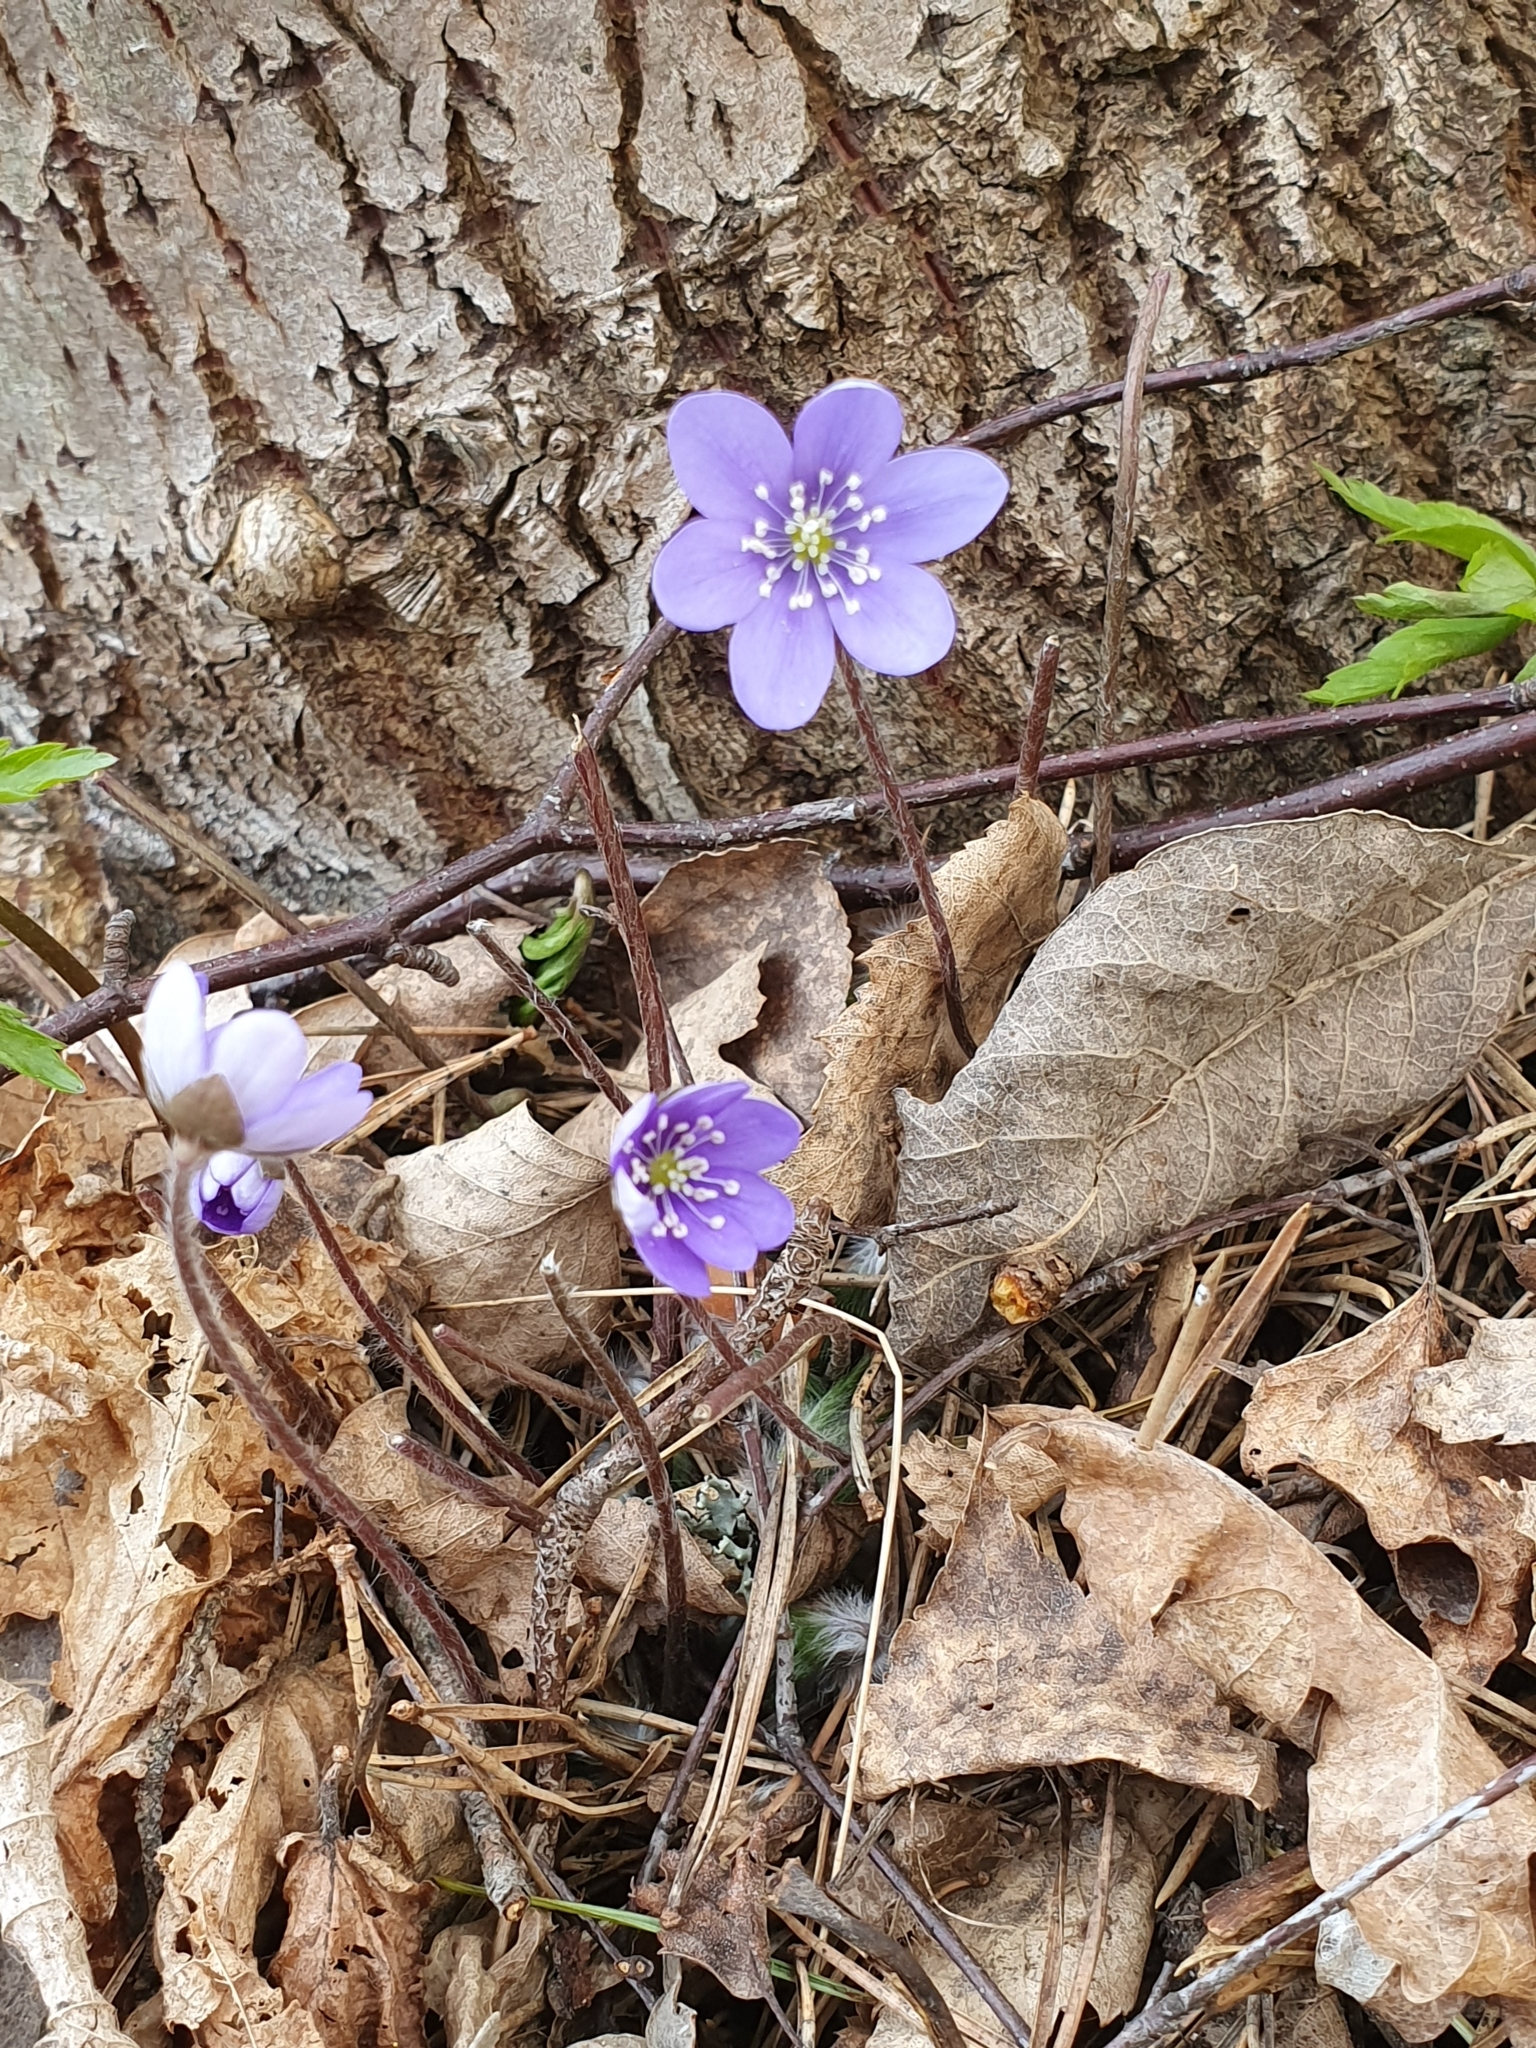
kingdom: Plantae
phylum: Tracheophyta
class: Magnoliopsida
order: Ranunculales
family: Ranunculaceae
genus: Hepatica
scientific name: Hepatica nobilis
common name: Liverleaf
